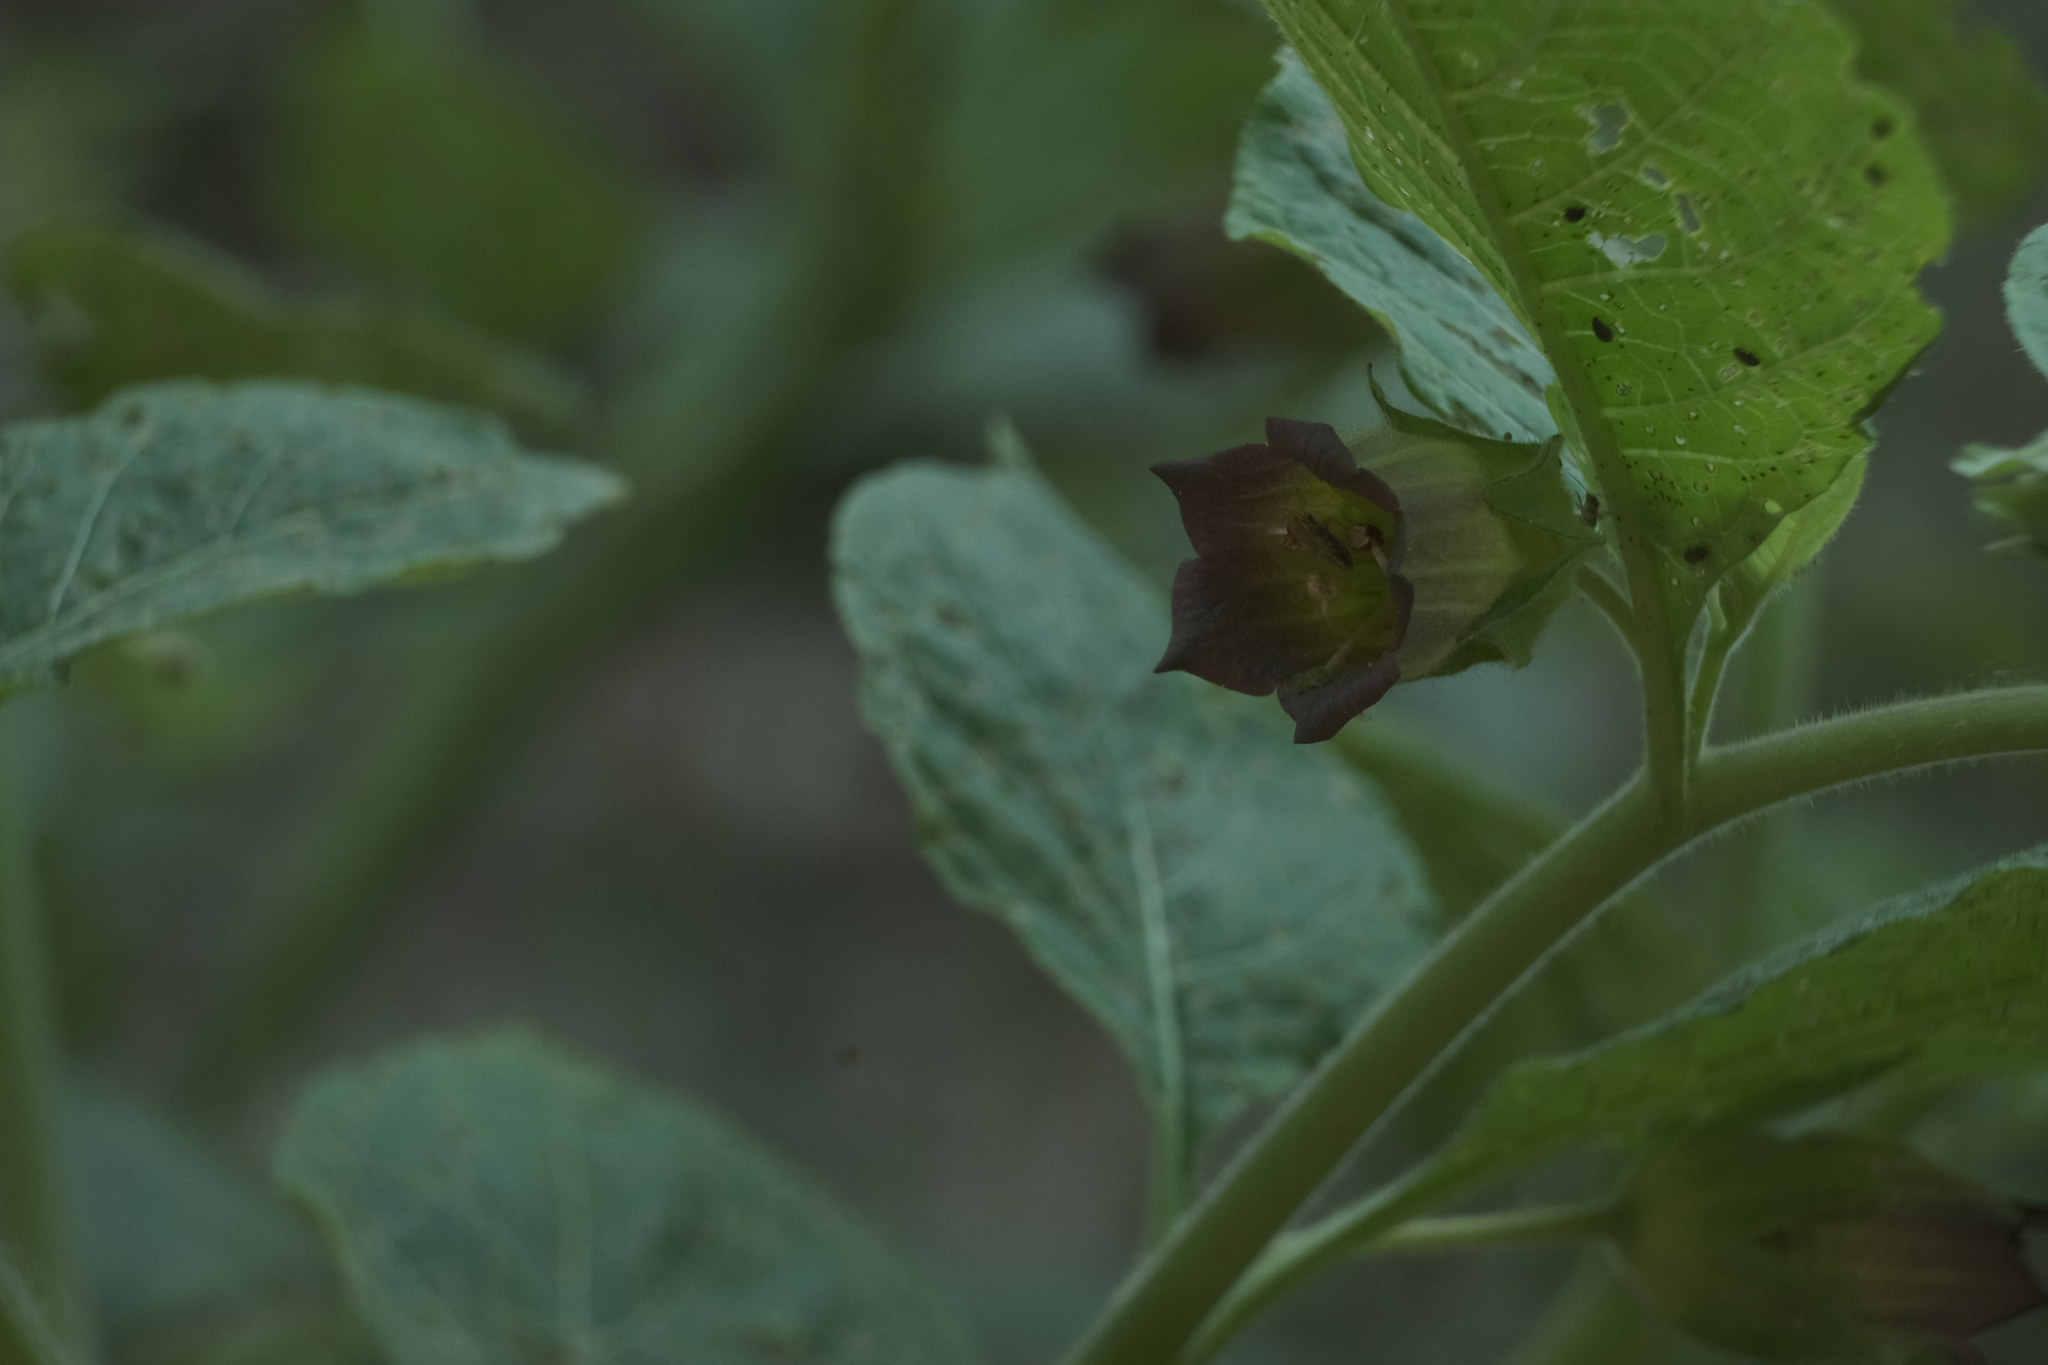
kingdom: Plantae
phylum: Tracheophyta
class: Magnoliopsida
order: Solanales
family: Solanaceae
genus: Atropa
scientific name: Atropa belladonna
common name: Deadly nightshade
